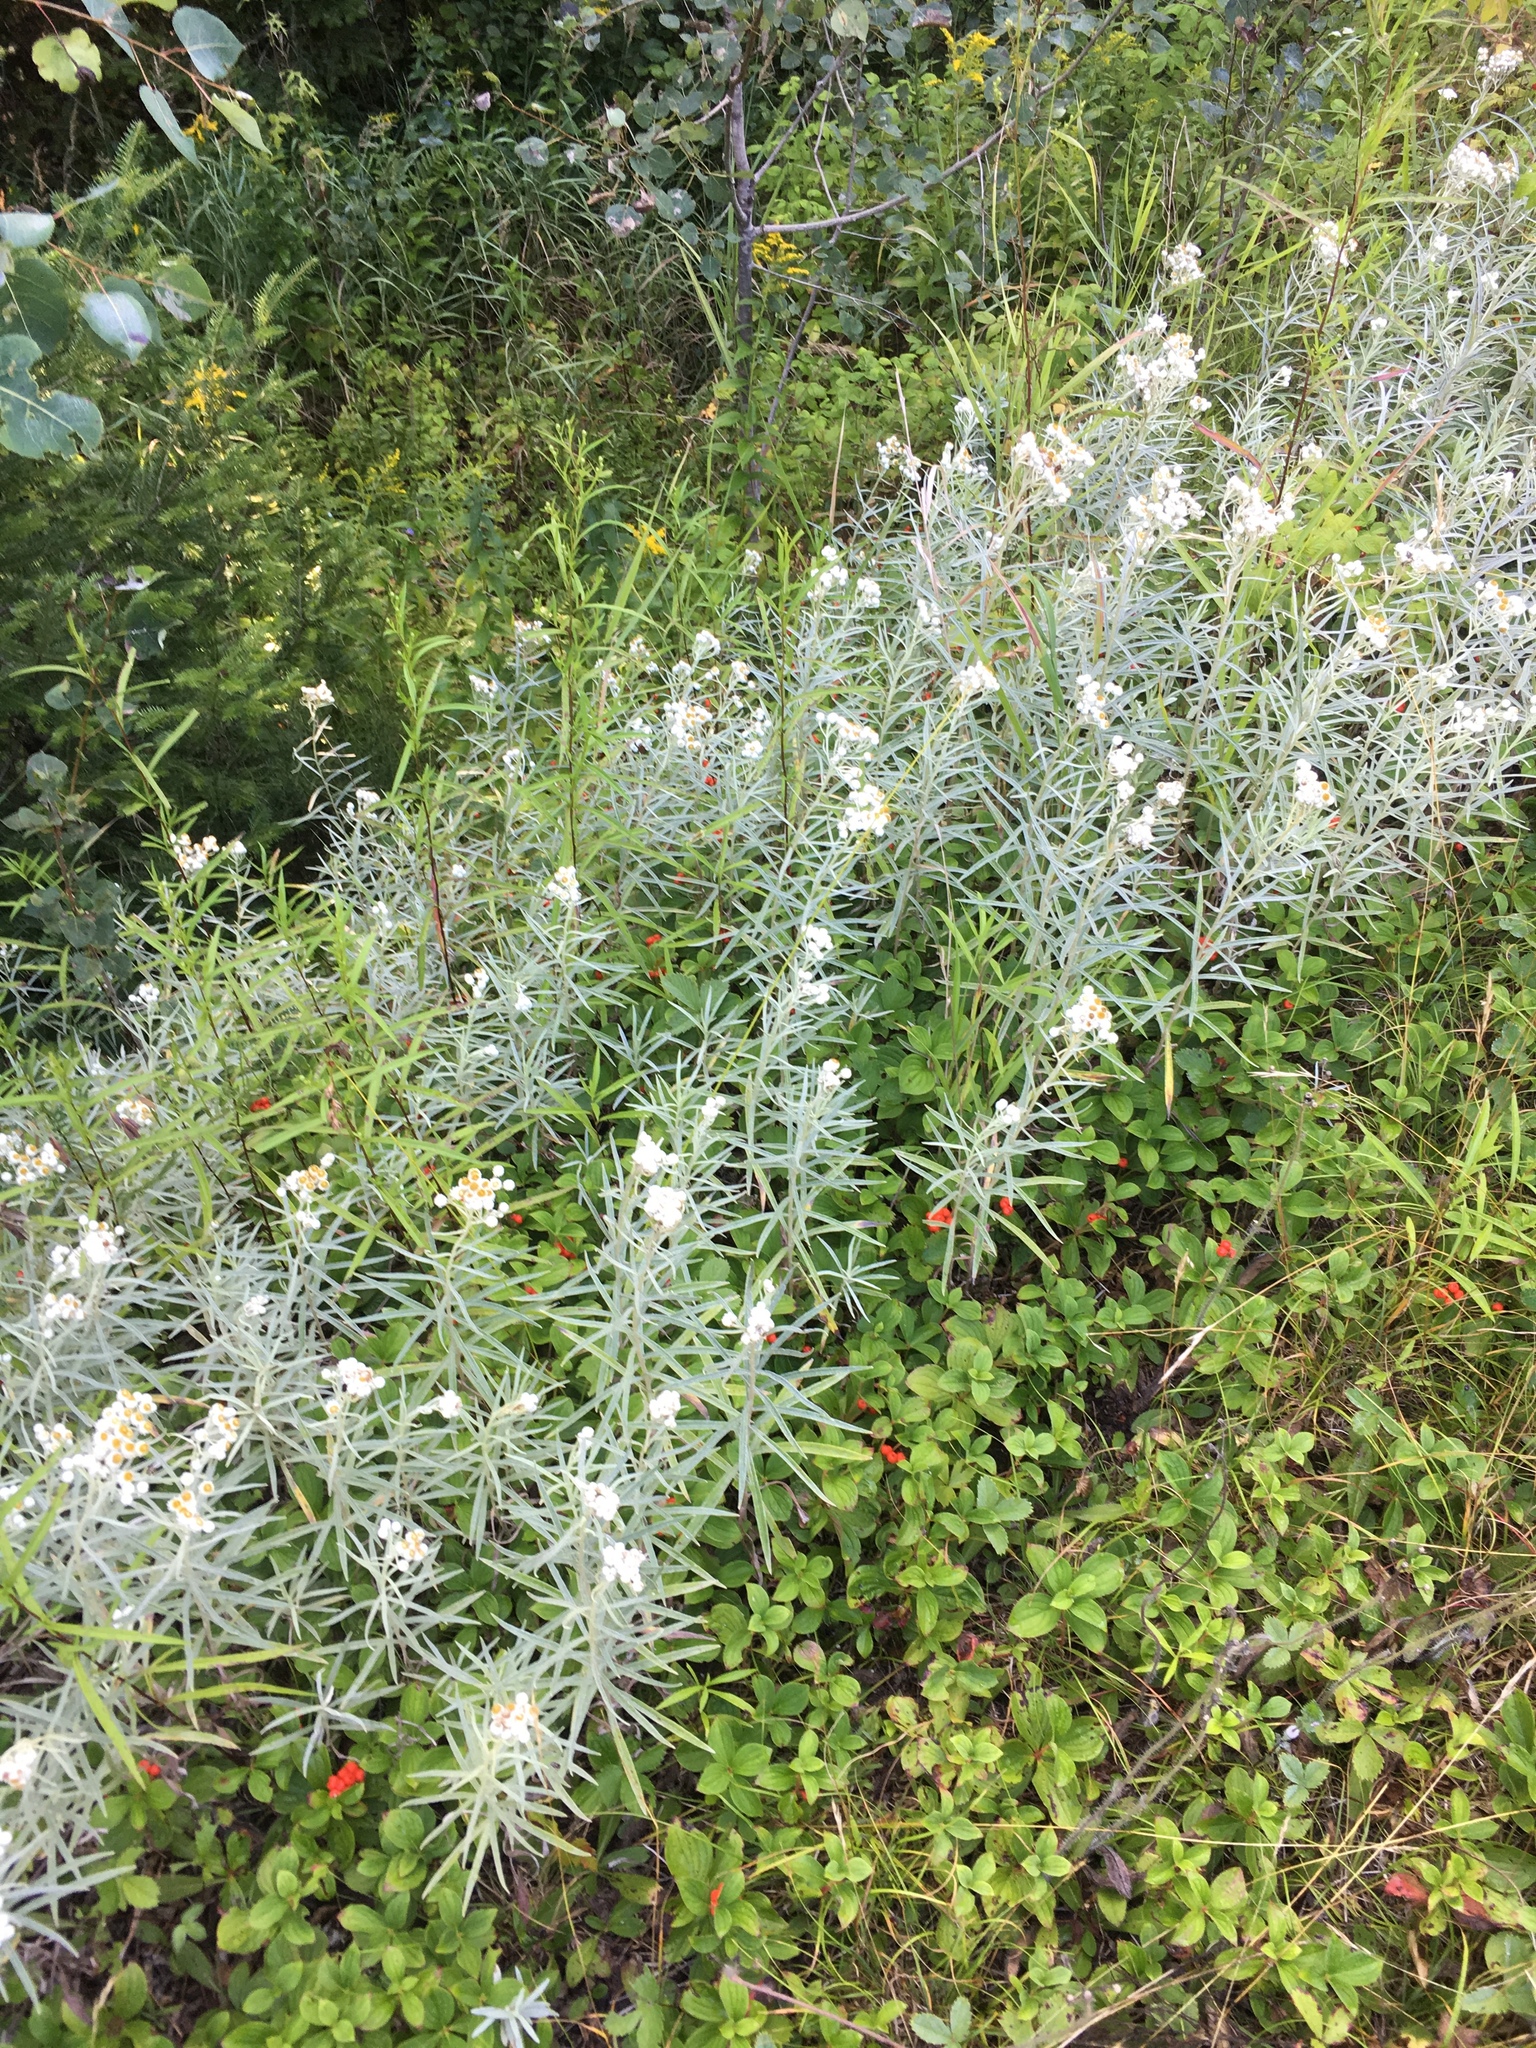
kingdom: Plantae
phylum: Tracheophyta
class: Magnoliopsida
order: Asterales
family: Asteraceae
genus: Anaphalis
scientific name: Anaphalis margaritacea
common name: Pearly everlasting
